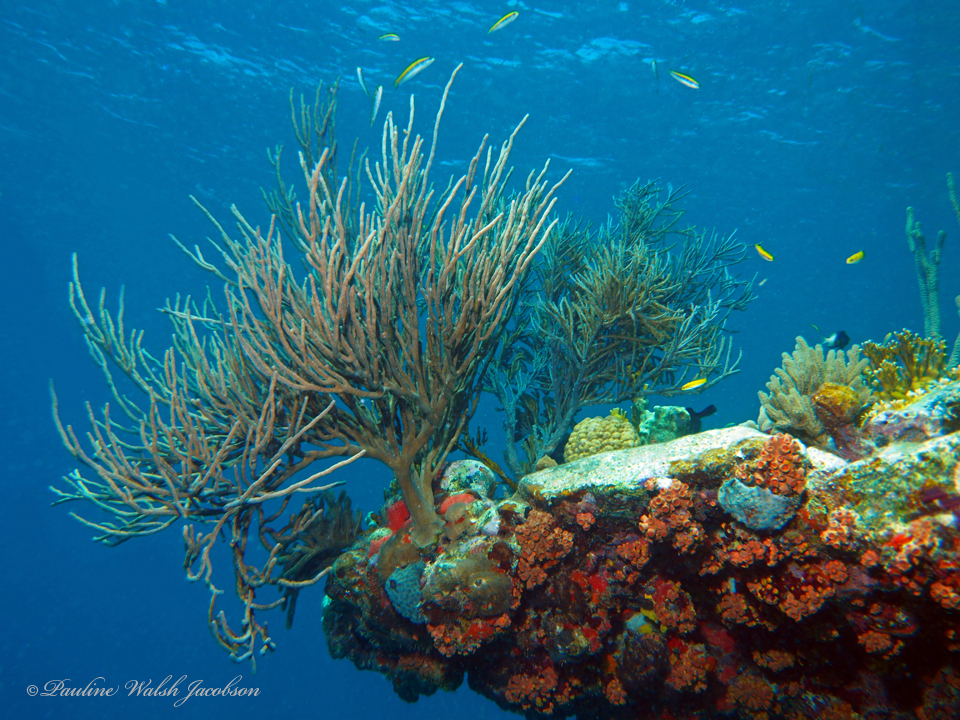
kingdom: Animalia
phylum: Chordata
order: Perciformes
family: Labridae
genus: Thalassoma
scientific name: Thalassoma bifasciatum
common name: Bluehead wrasse
